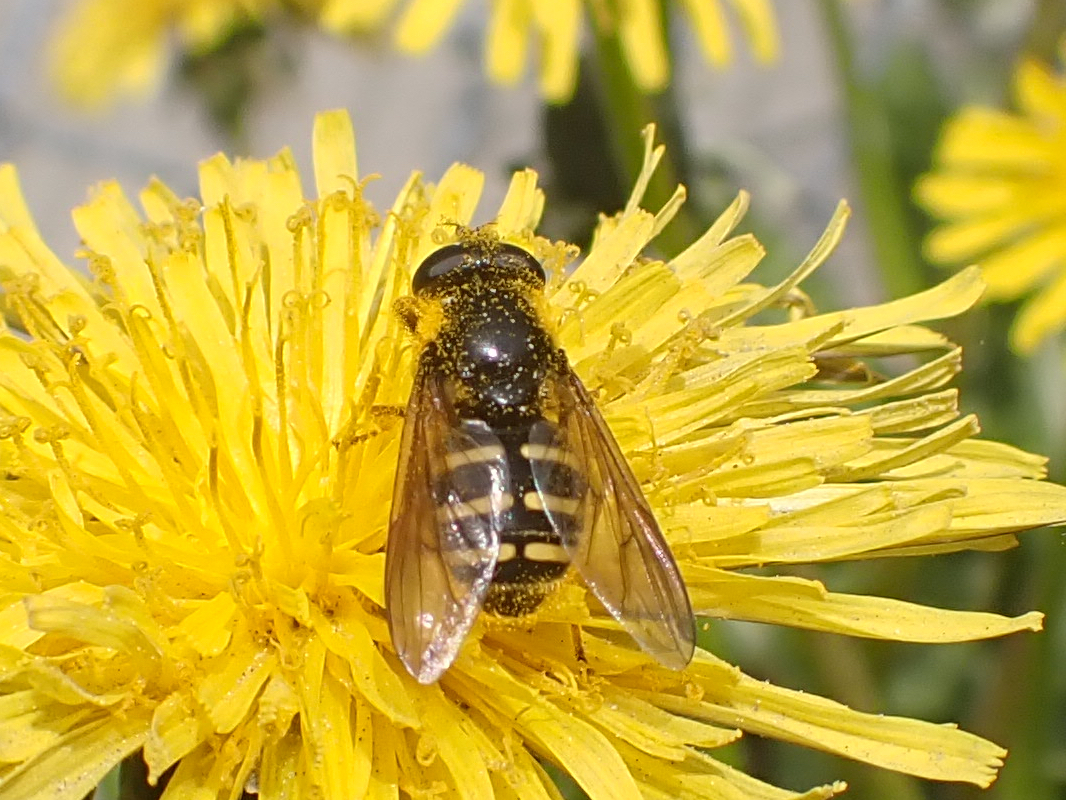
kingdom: Animalia
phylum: Arthropoda
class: Insecta
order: Diptera
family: Syrphidae
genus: Sericomyia
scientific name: Sericomyia chalcopyga
